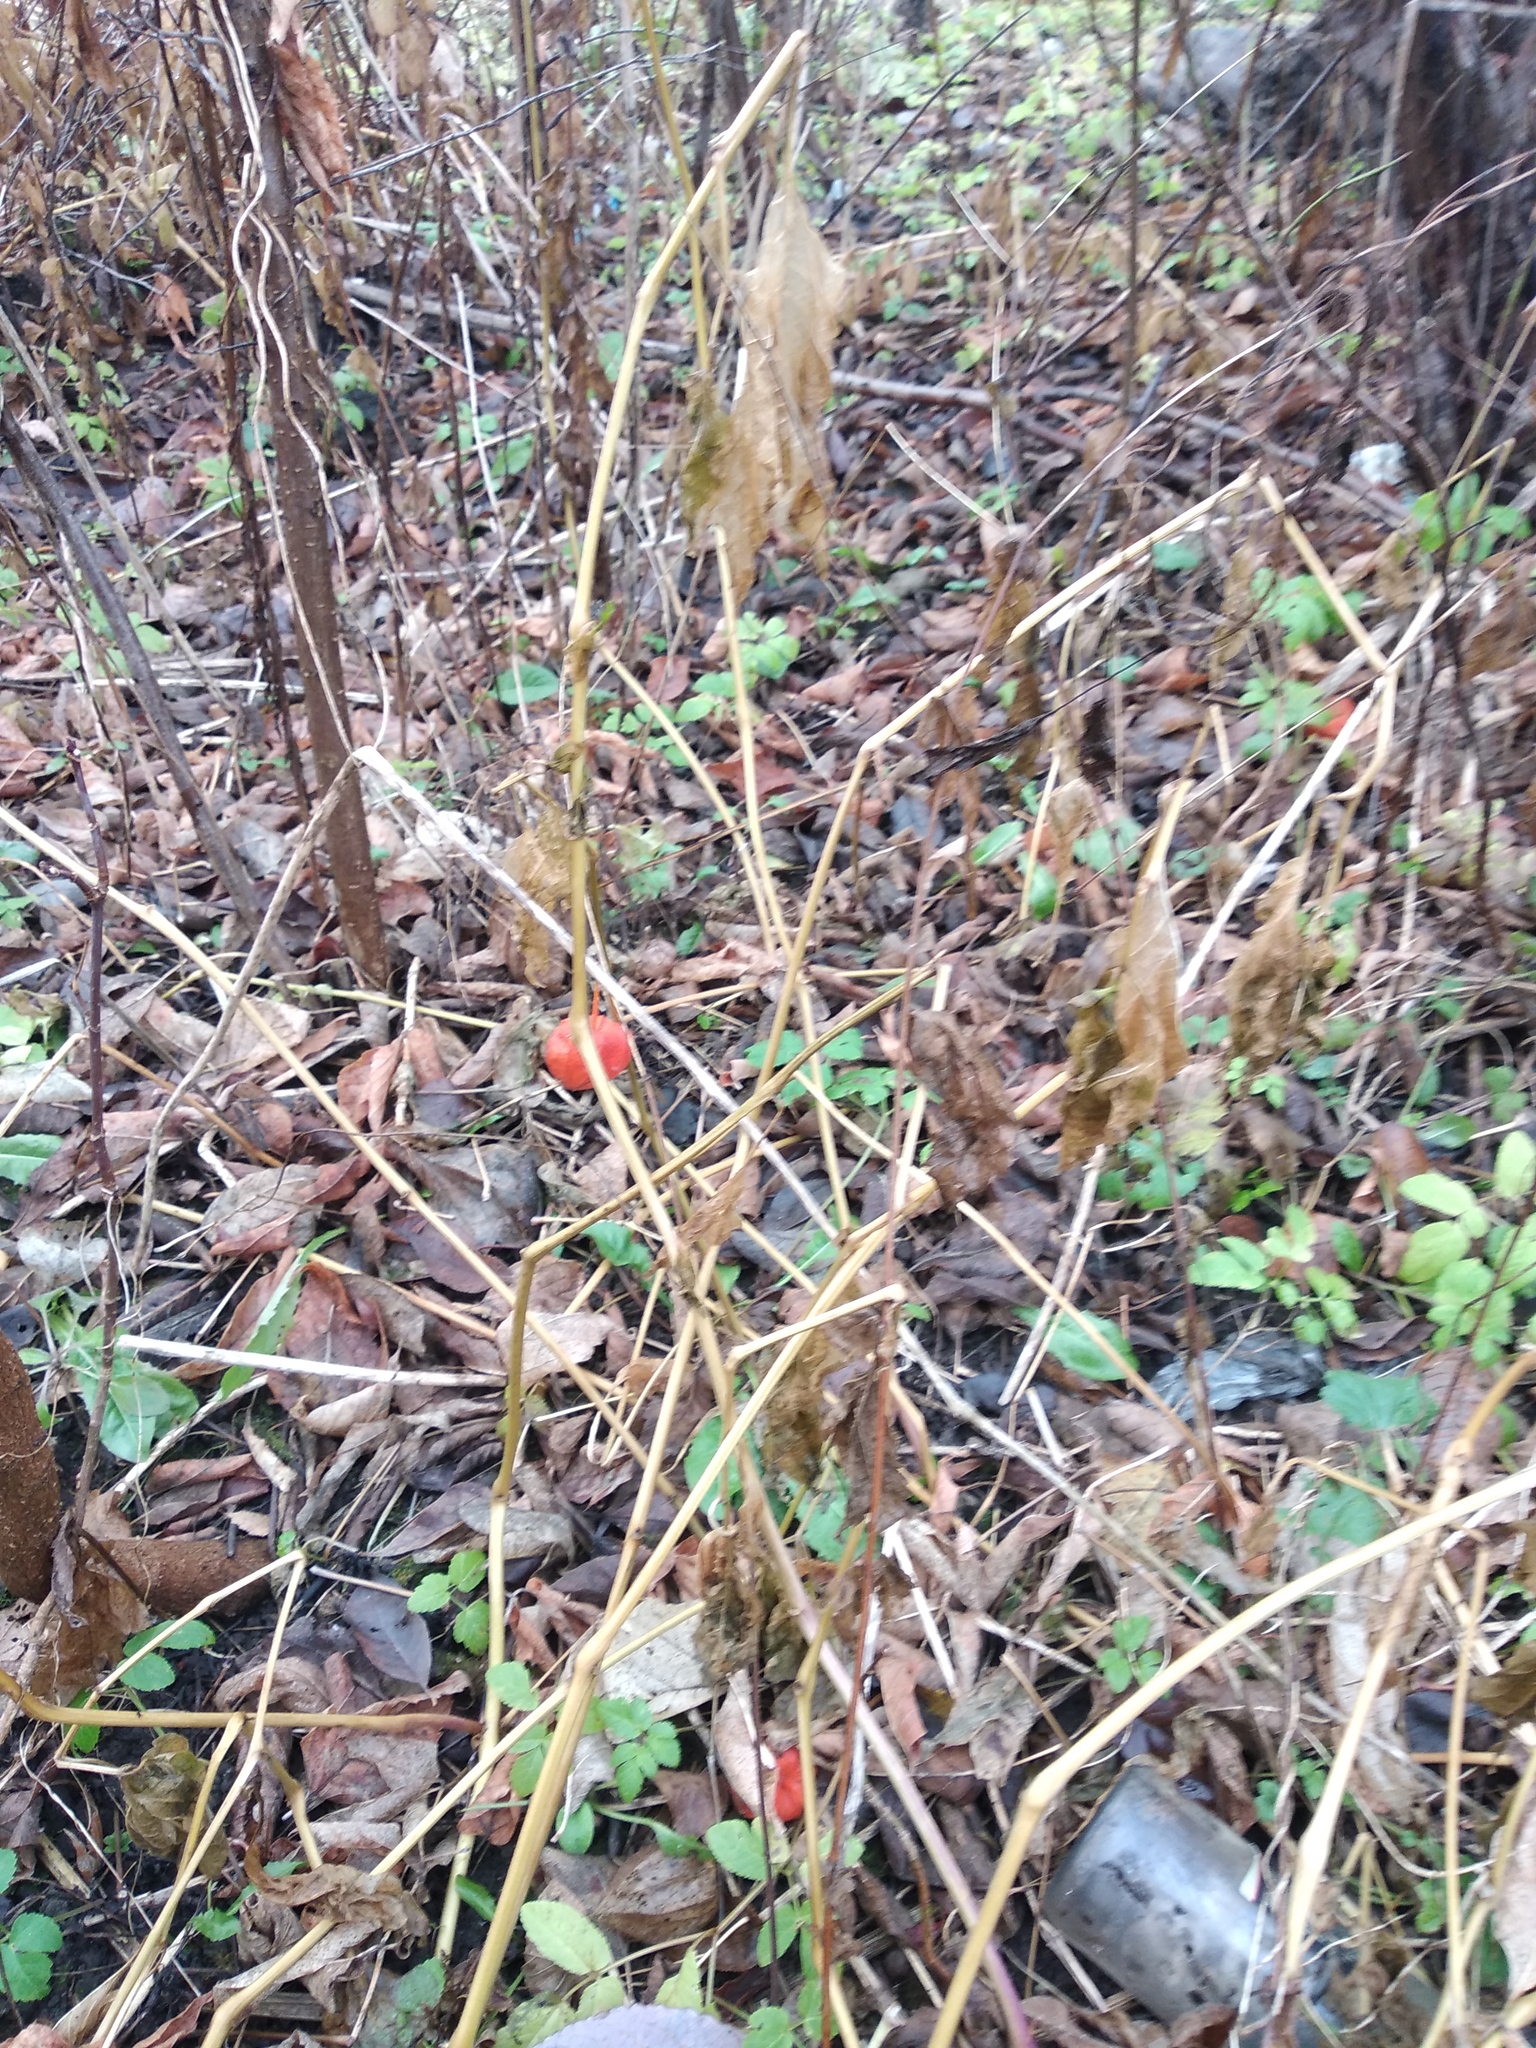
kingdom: Plantae
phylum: Tracheophyta
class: Magnoliopsida
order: Solanales
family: Solanaceae
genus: Alkekengi
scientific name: Alkekengi officinarum
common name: Japanese-lantern
